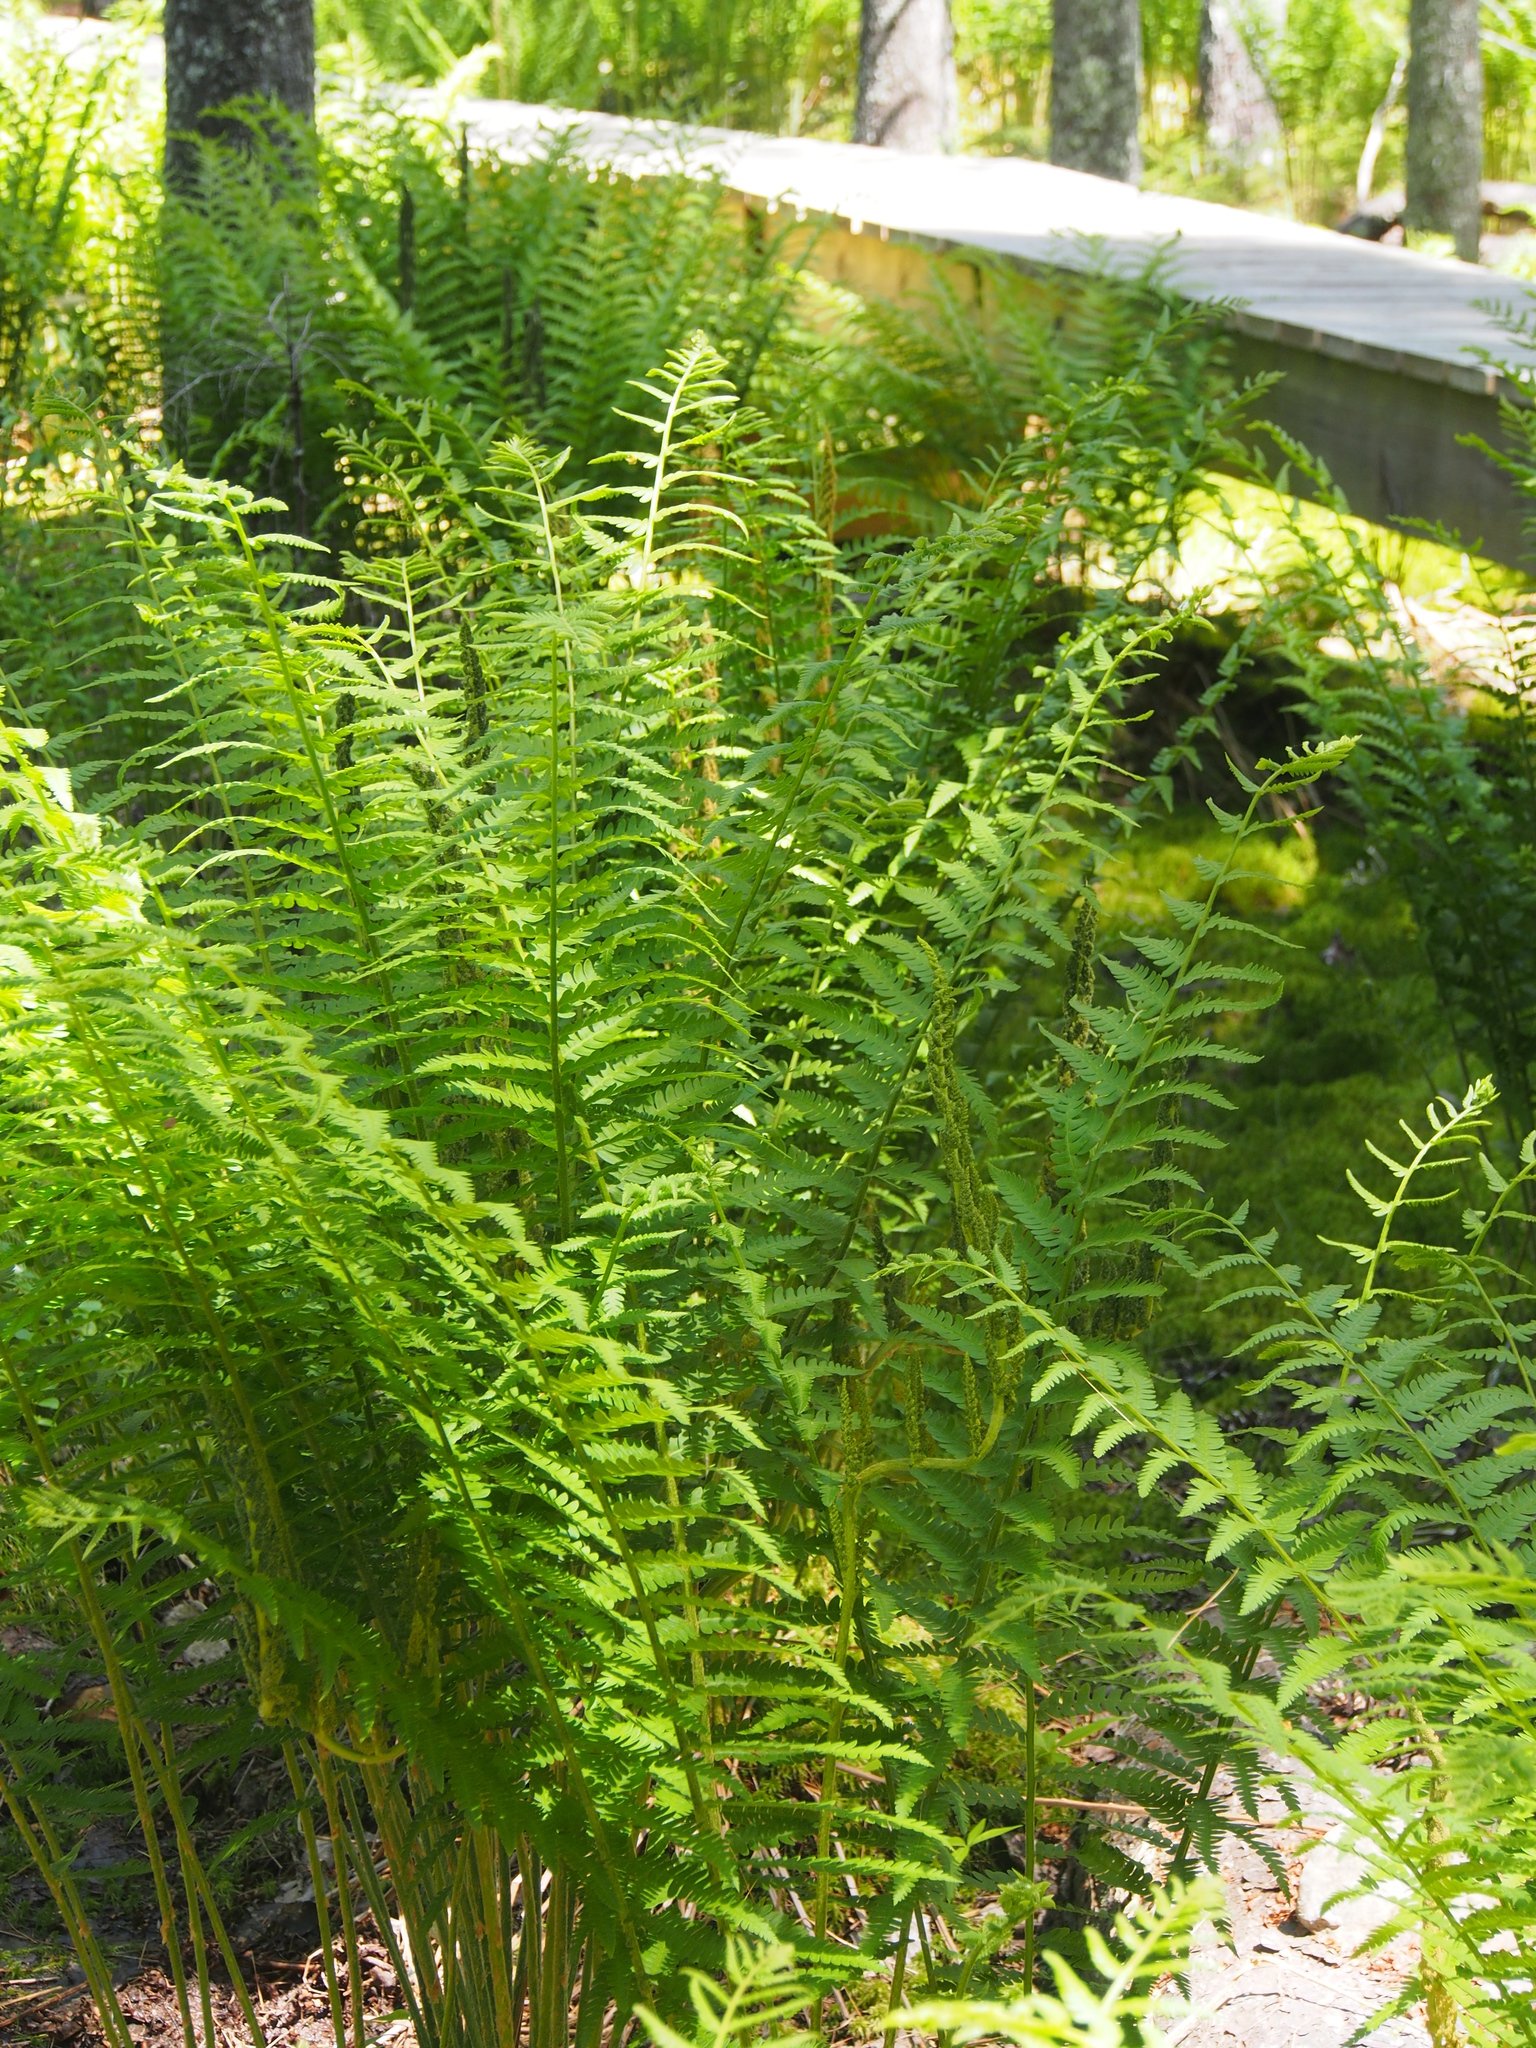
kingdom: Plantae
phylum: Tracheophyta
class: Polypodiopsida
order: Osmundales
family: Osmundaceae
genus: Osmundastrum
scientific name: Osmundastrum cinnamomeum
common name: Cinnamon fern
